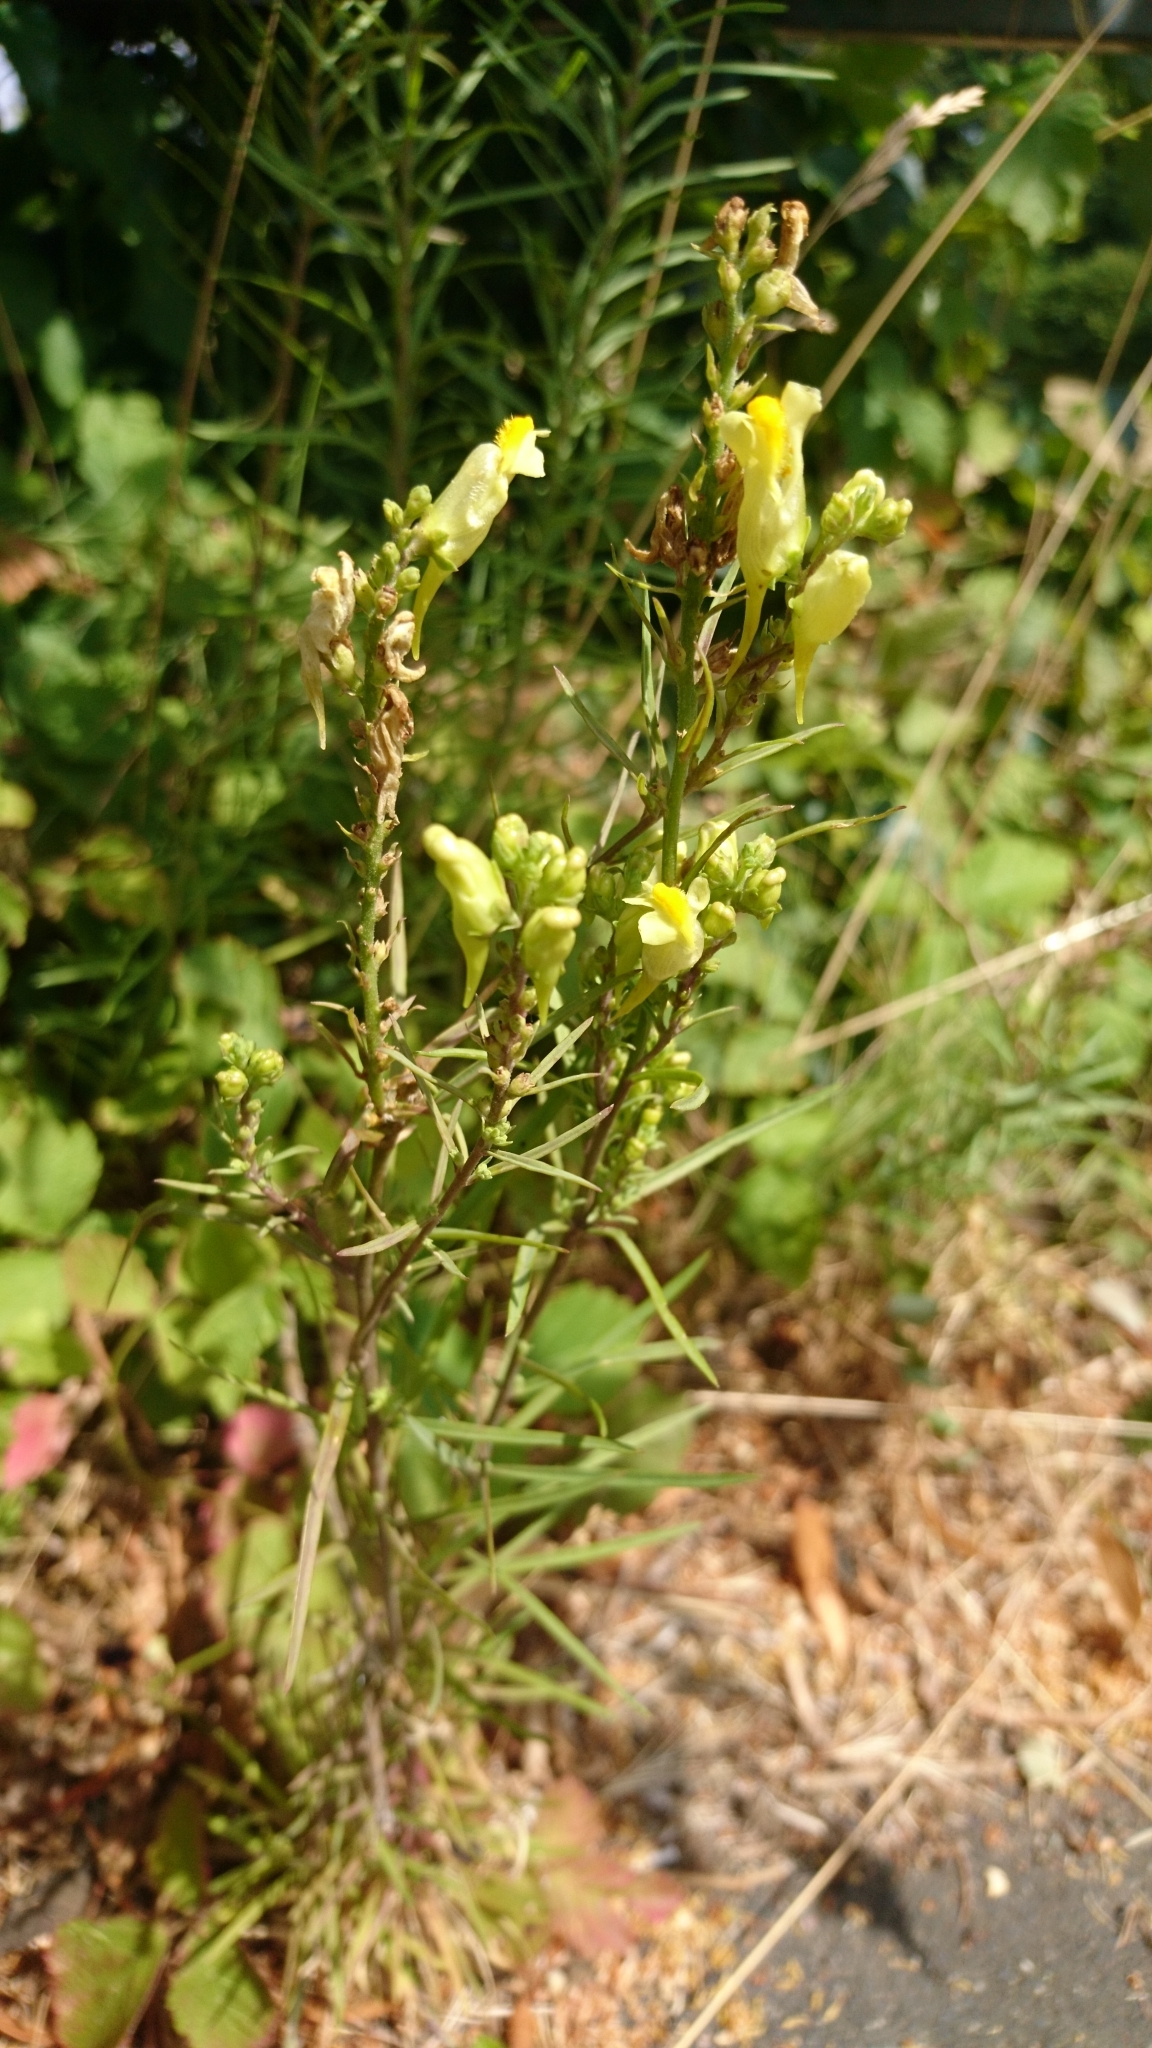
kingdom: Plantae
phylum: Tracheophyta
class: Magnoliopsida
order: Lamiales
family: Plantaginaceae
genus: Linaria
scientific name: Linaria vulgaris
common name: Butter and eggs
